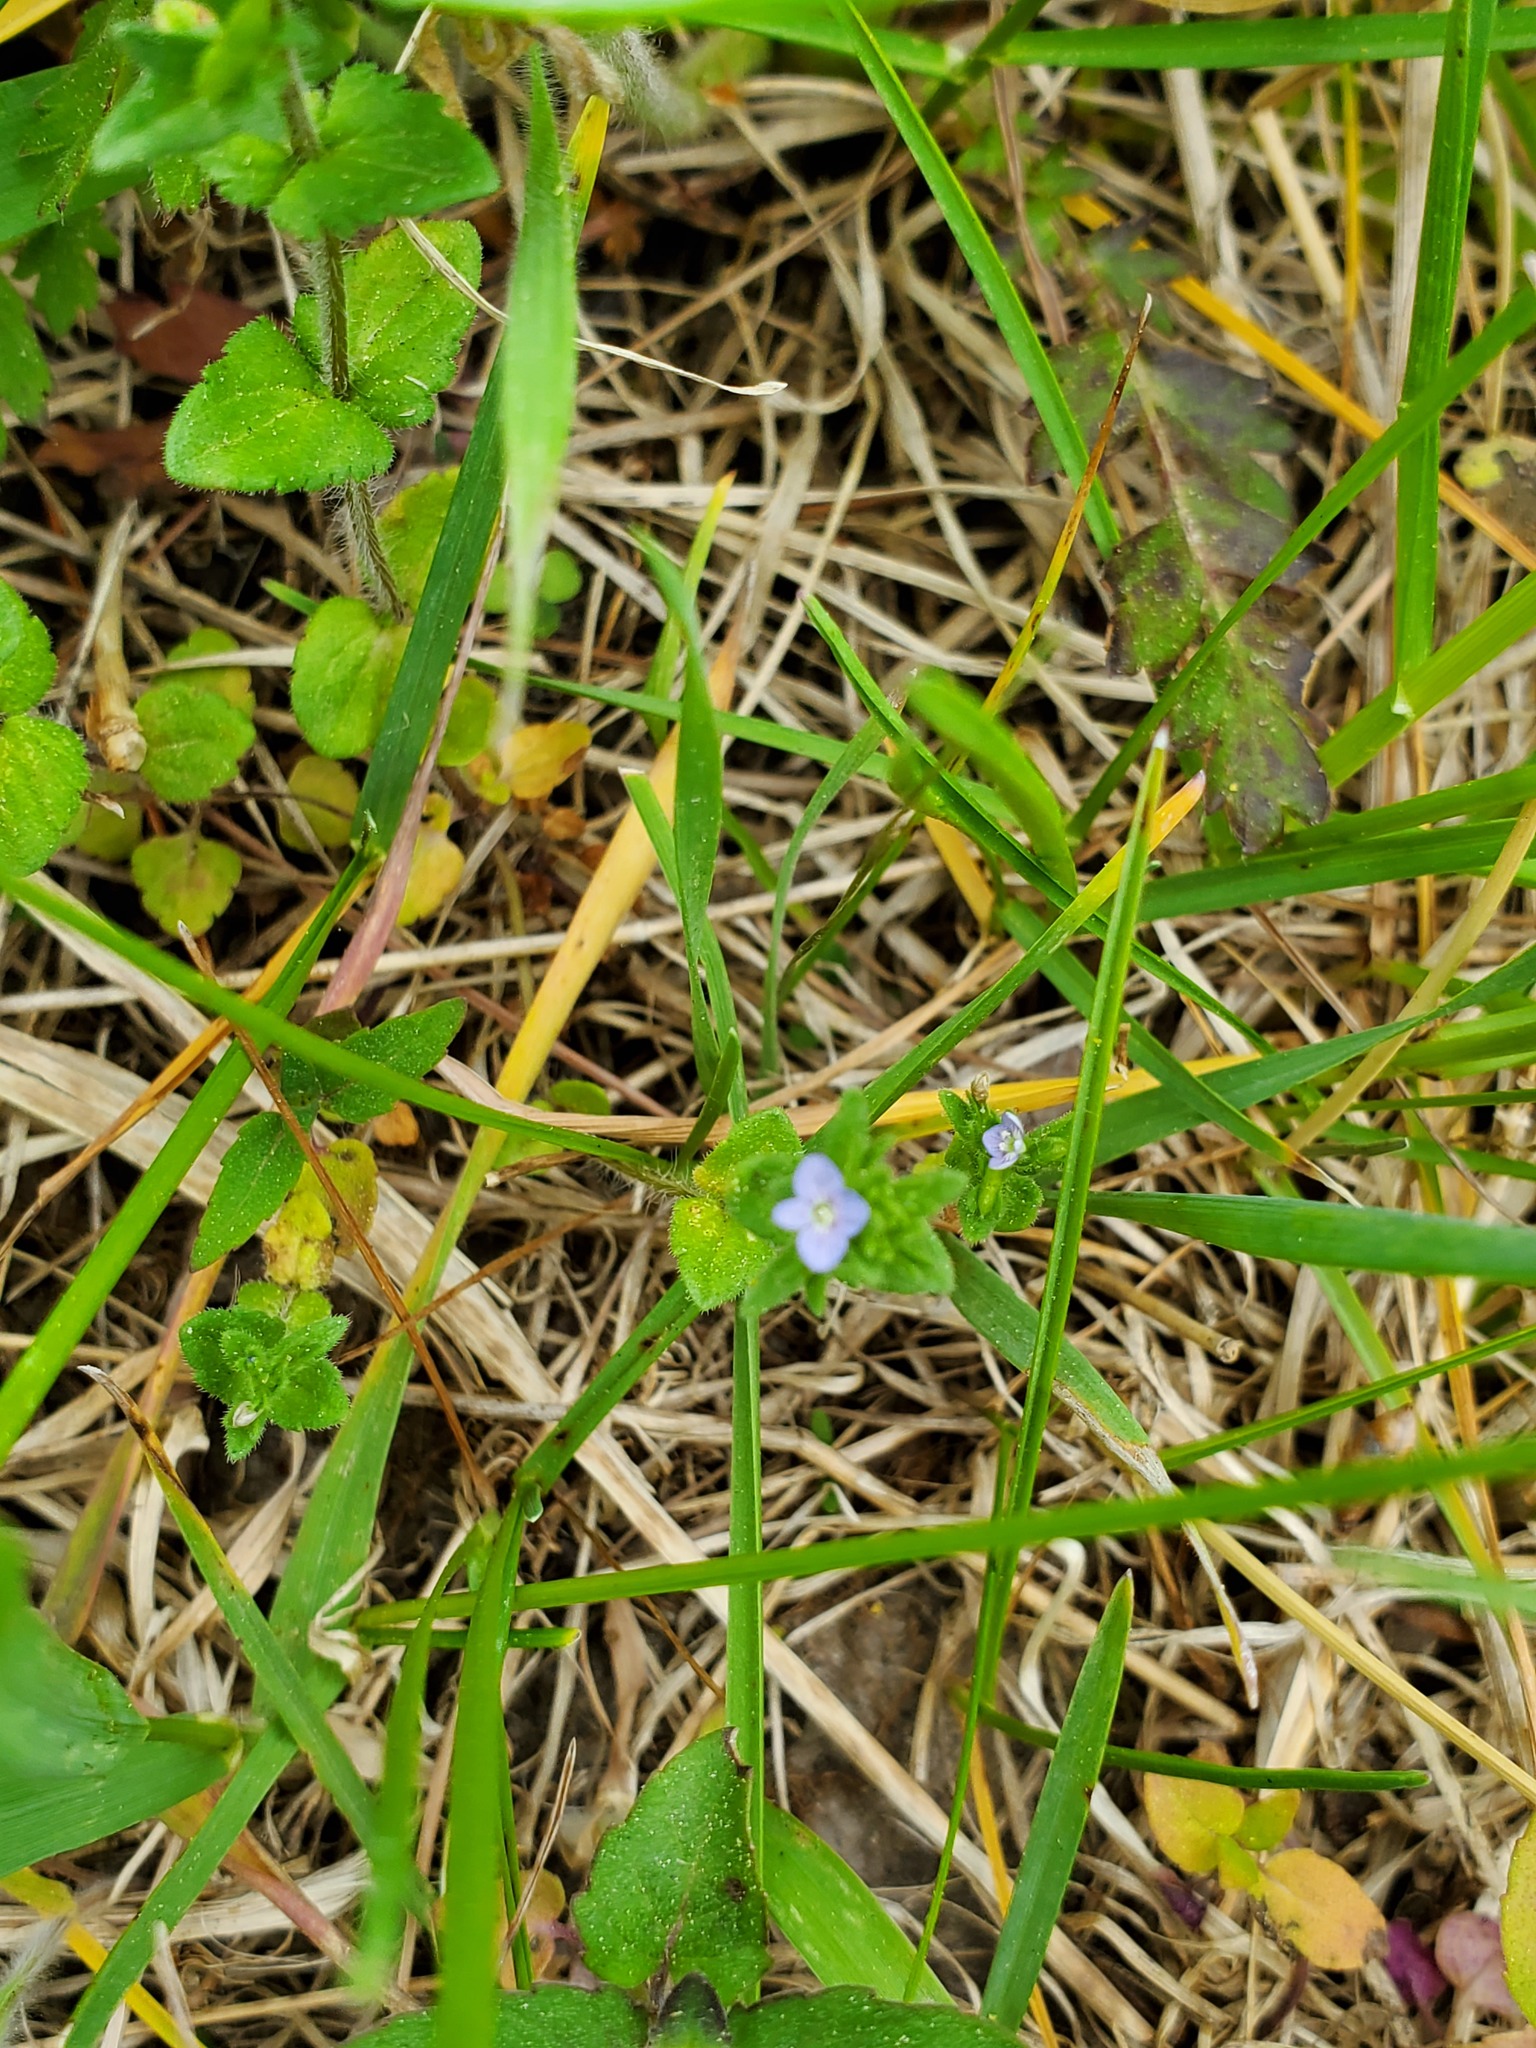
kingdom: Plantae
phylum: Tracheophyta
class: Magnoliopsida
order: Lamiales
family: Plantaginaceae
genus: Veronica
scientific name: Veronica arvensis
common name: Corn speedwell
